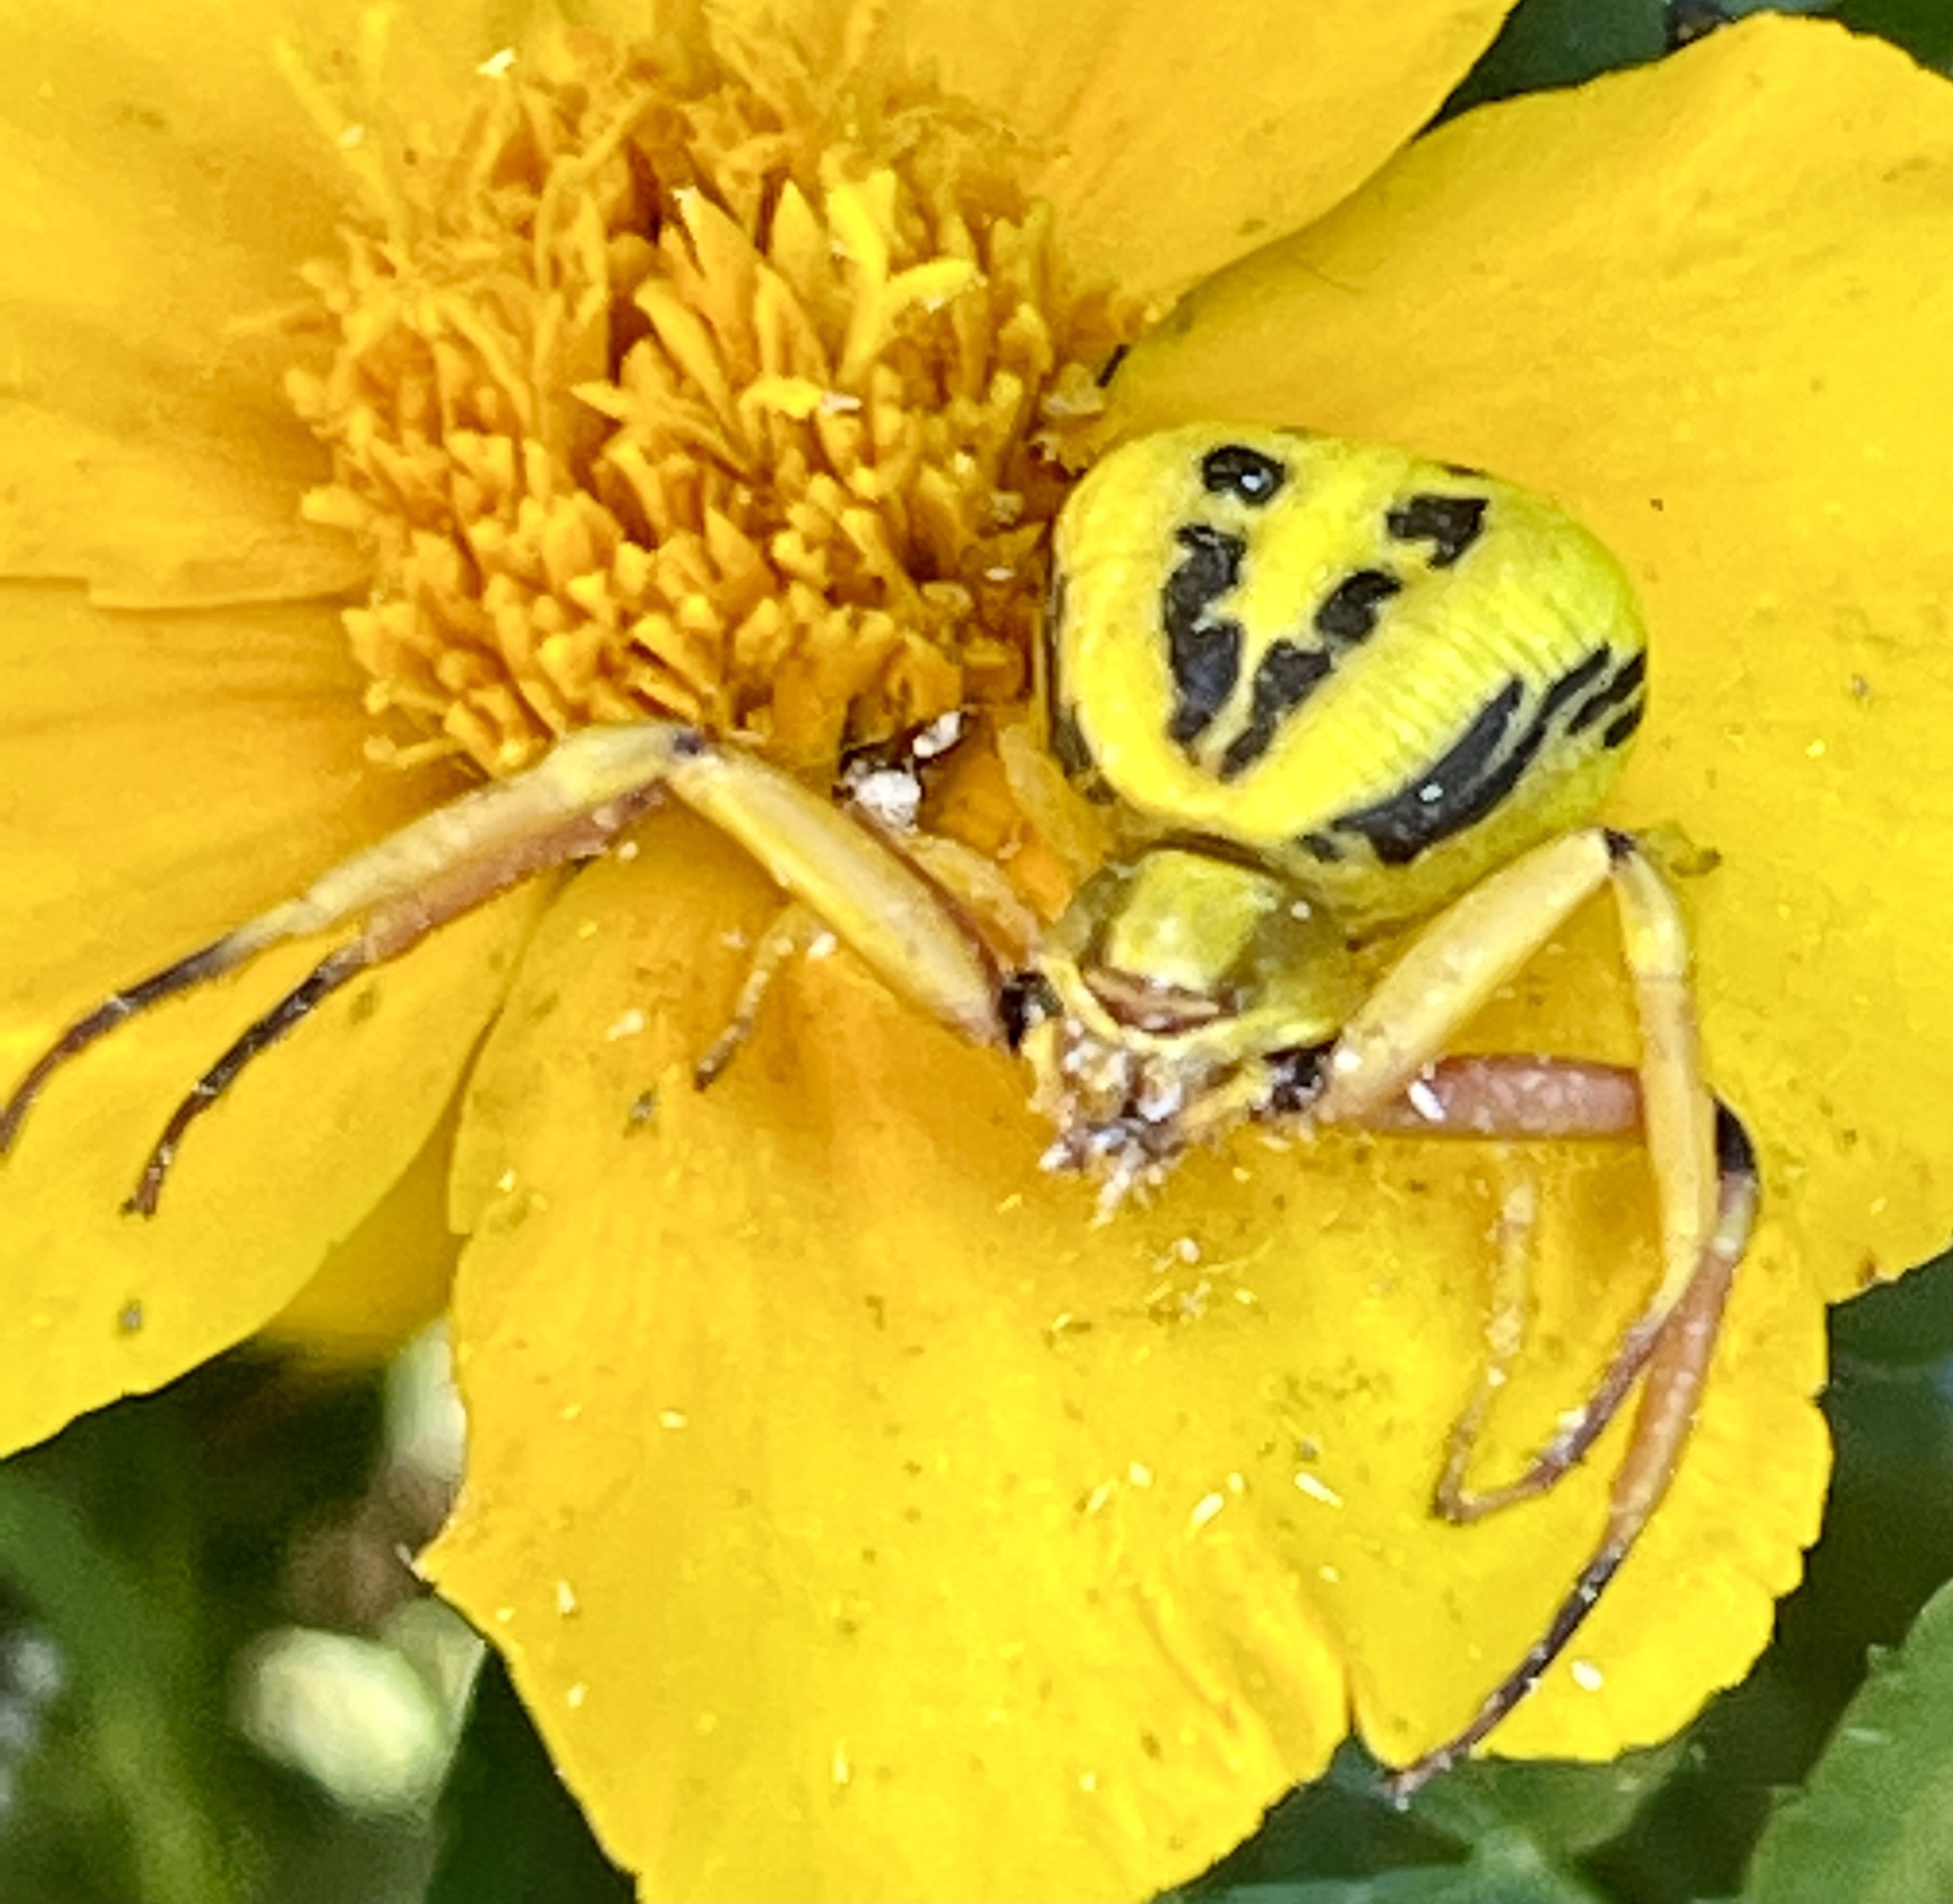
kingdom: Animalia
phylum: Arthropoda
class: Arachnida
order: Araneae
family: Thomisidae
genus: Misumenoides
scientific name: Misumenoides formosipes
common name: White-banded crab spider
